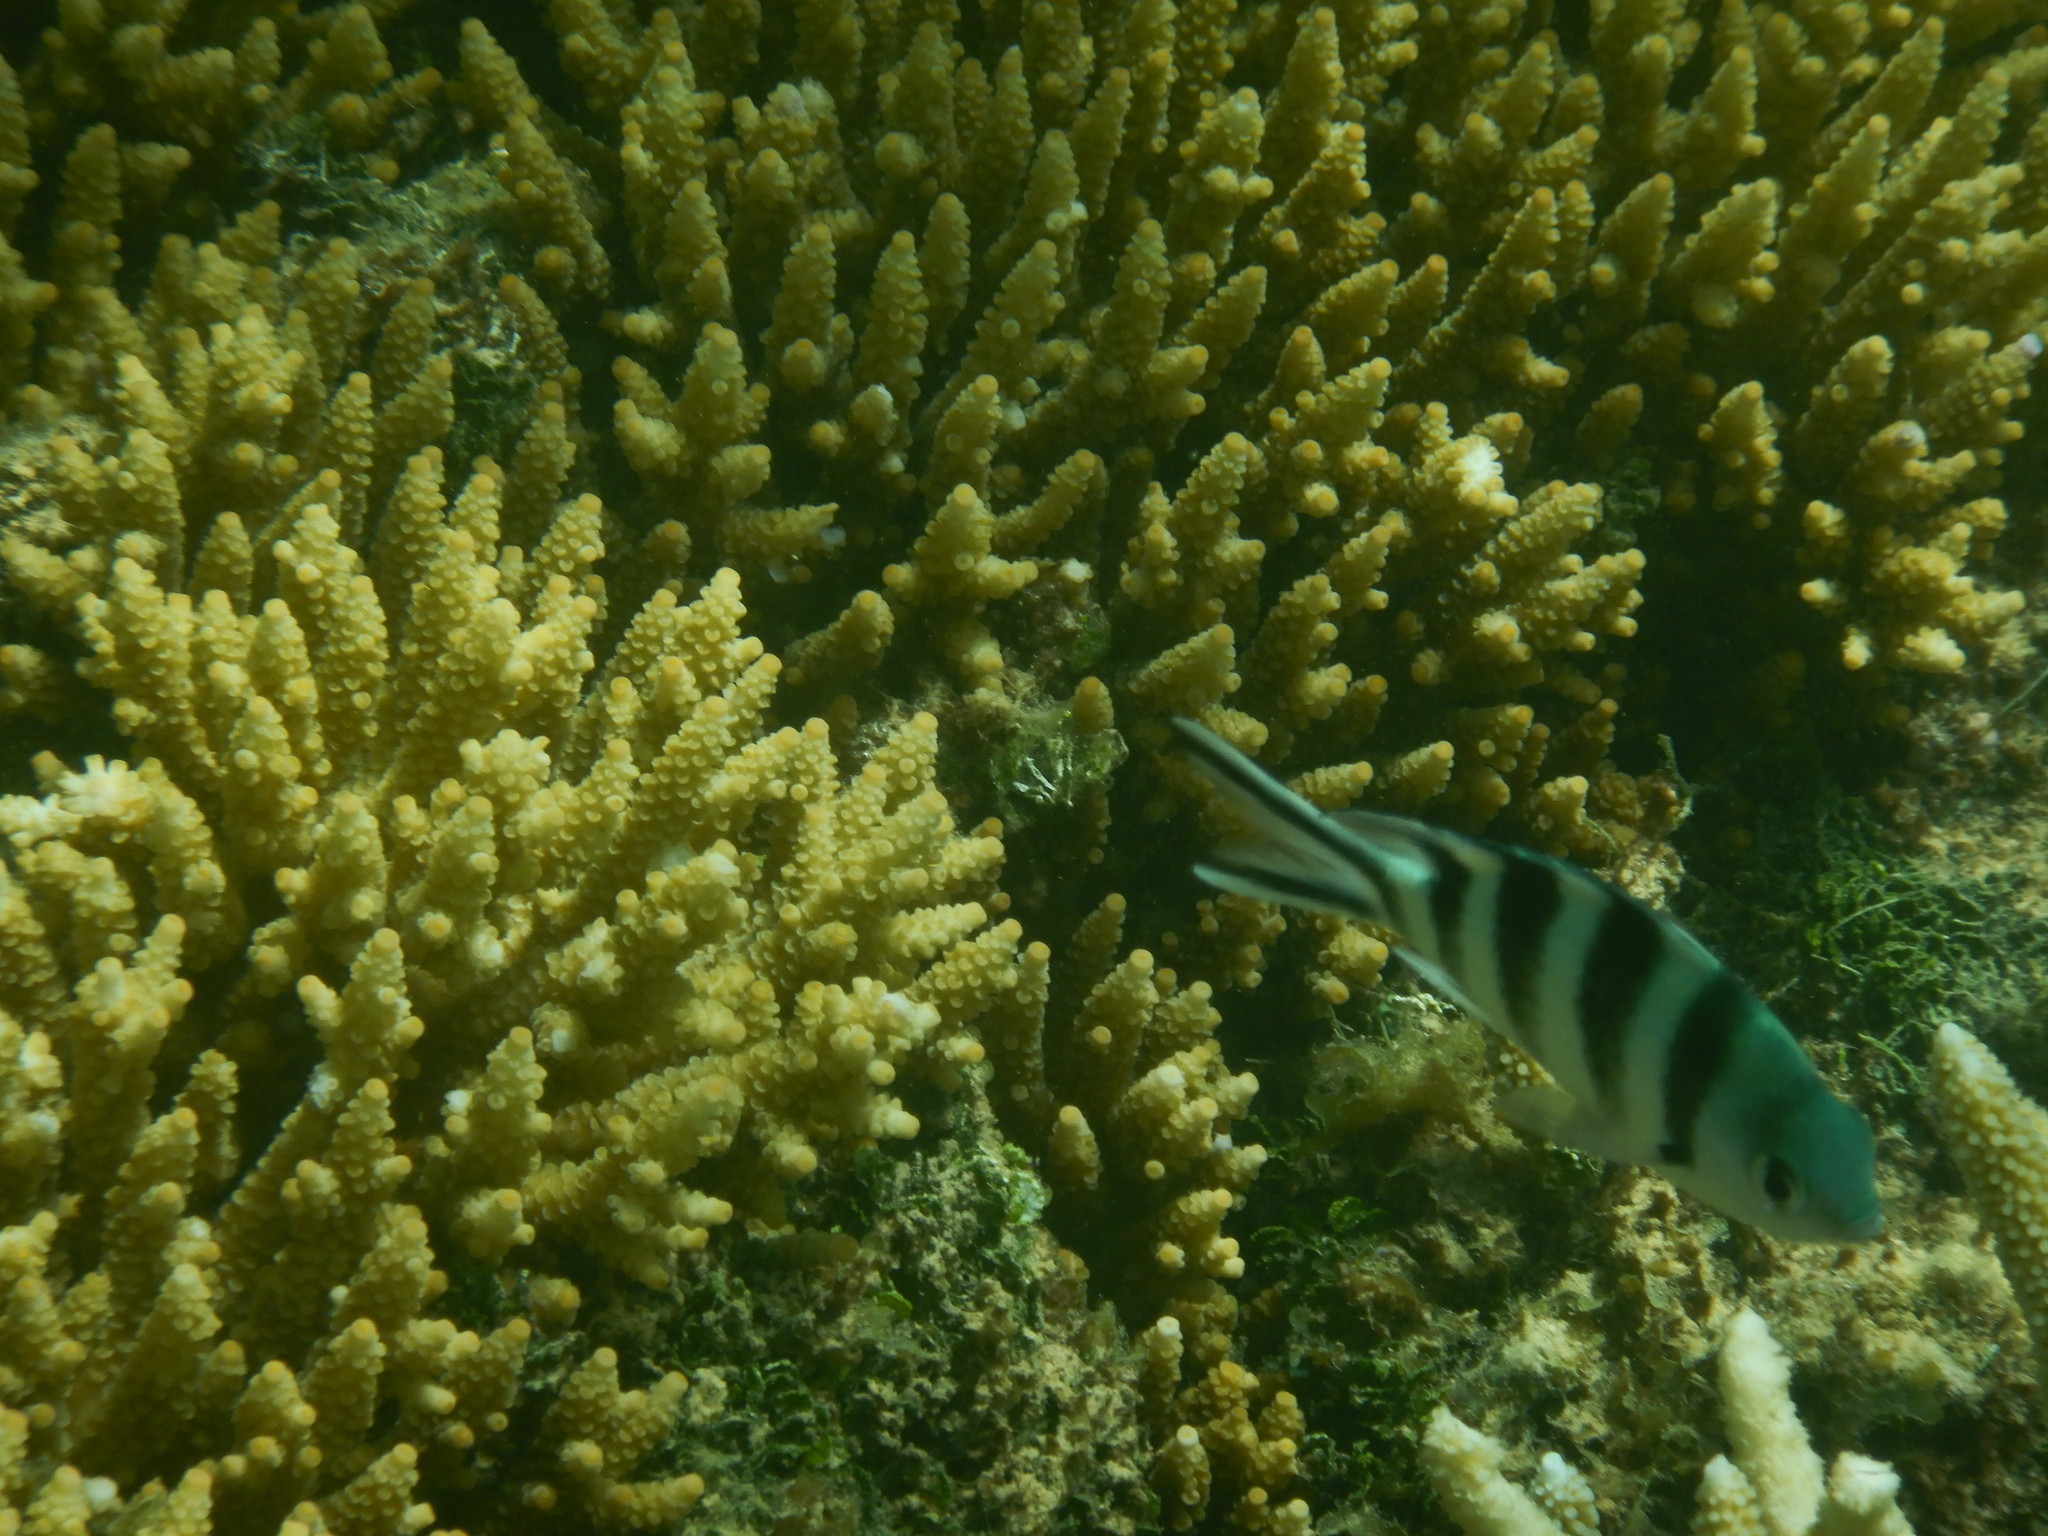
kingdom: Animalia
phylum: Chordata
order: Perciformes
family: Pomacentridae
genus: Abudefduf
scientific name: Abudefduf sexfasciatus
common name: Scissortail sergeant
